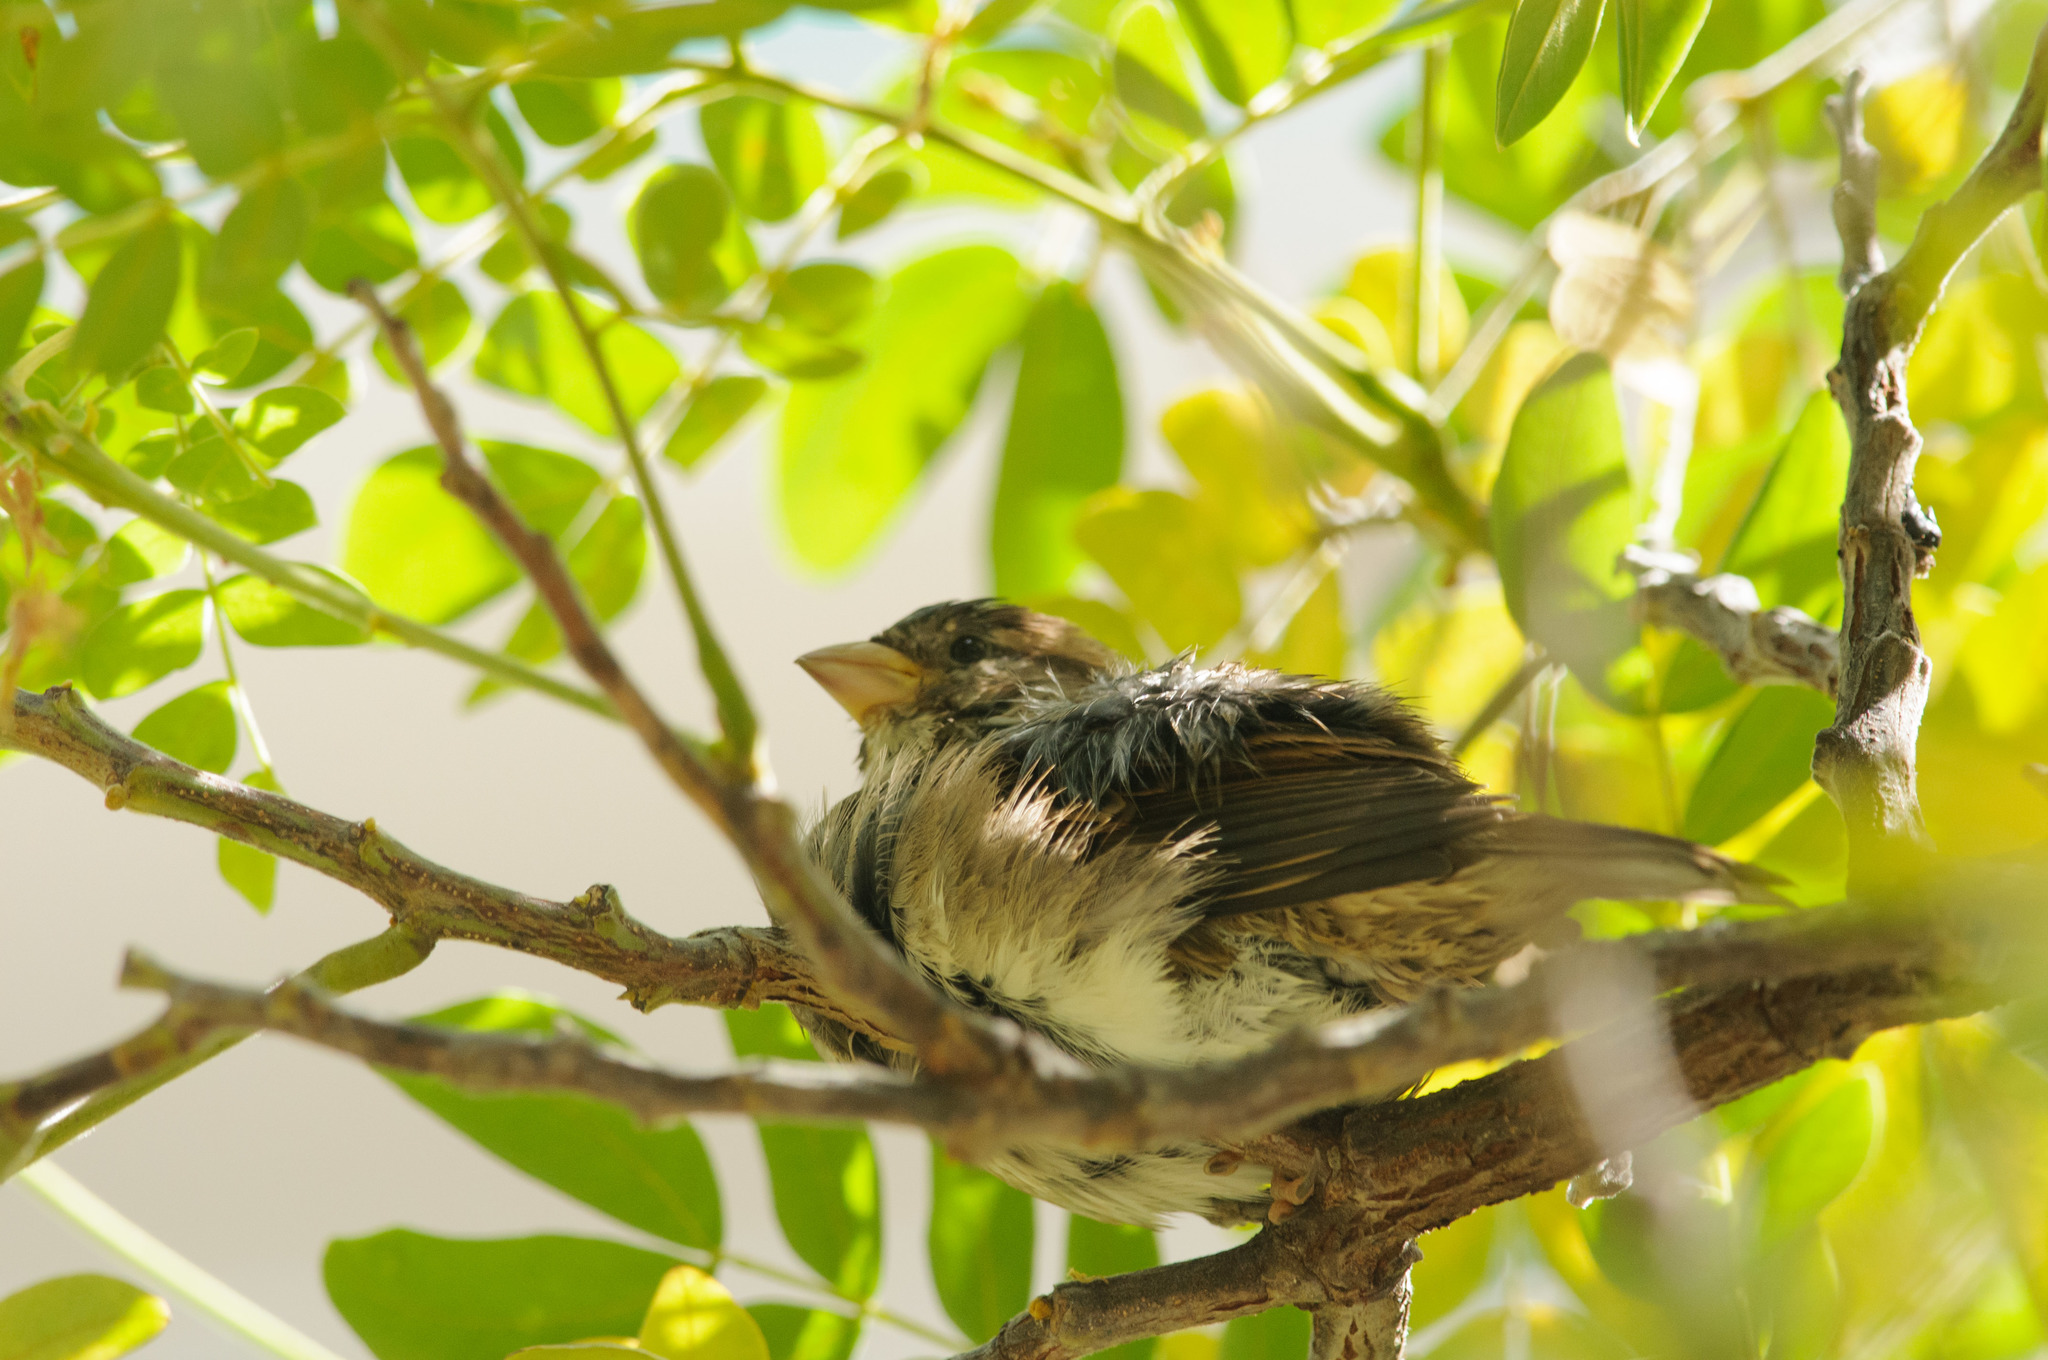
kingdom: Animalia
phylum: Chordata
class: Aves
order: Passeriformes
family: Passeridae
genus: Passer
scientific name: Passer domesticus
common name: House sparrow
